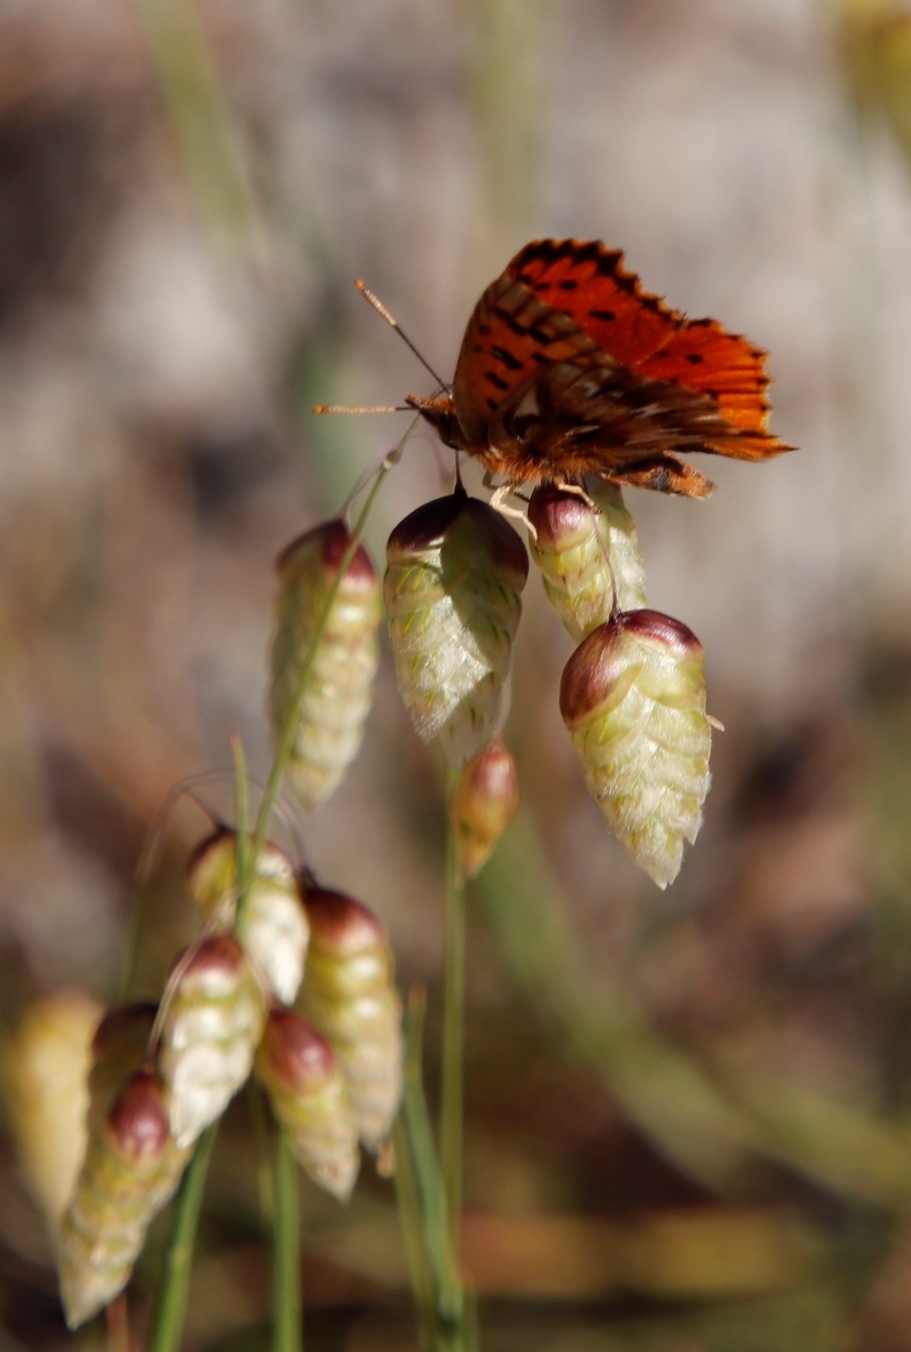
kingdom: Animalia
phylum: Arthropoda
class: Insecta
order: Lepidoptera
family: Lycaenidae
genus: Chrysoritis
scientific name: Chrysoritis
